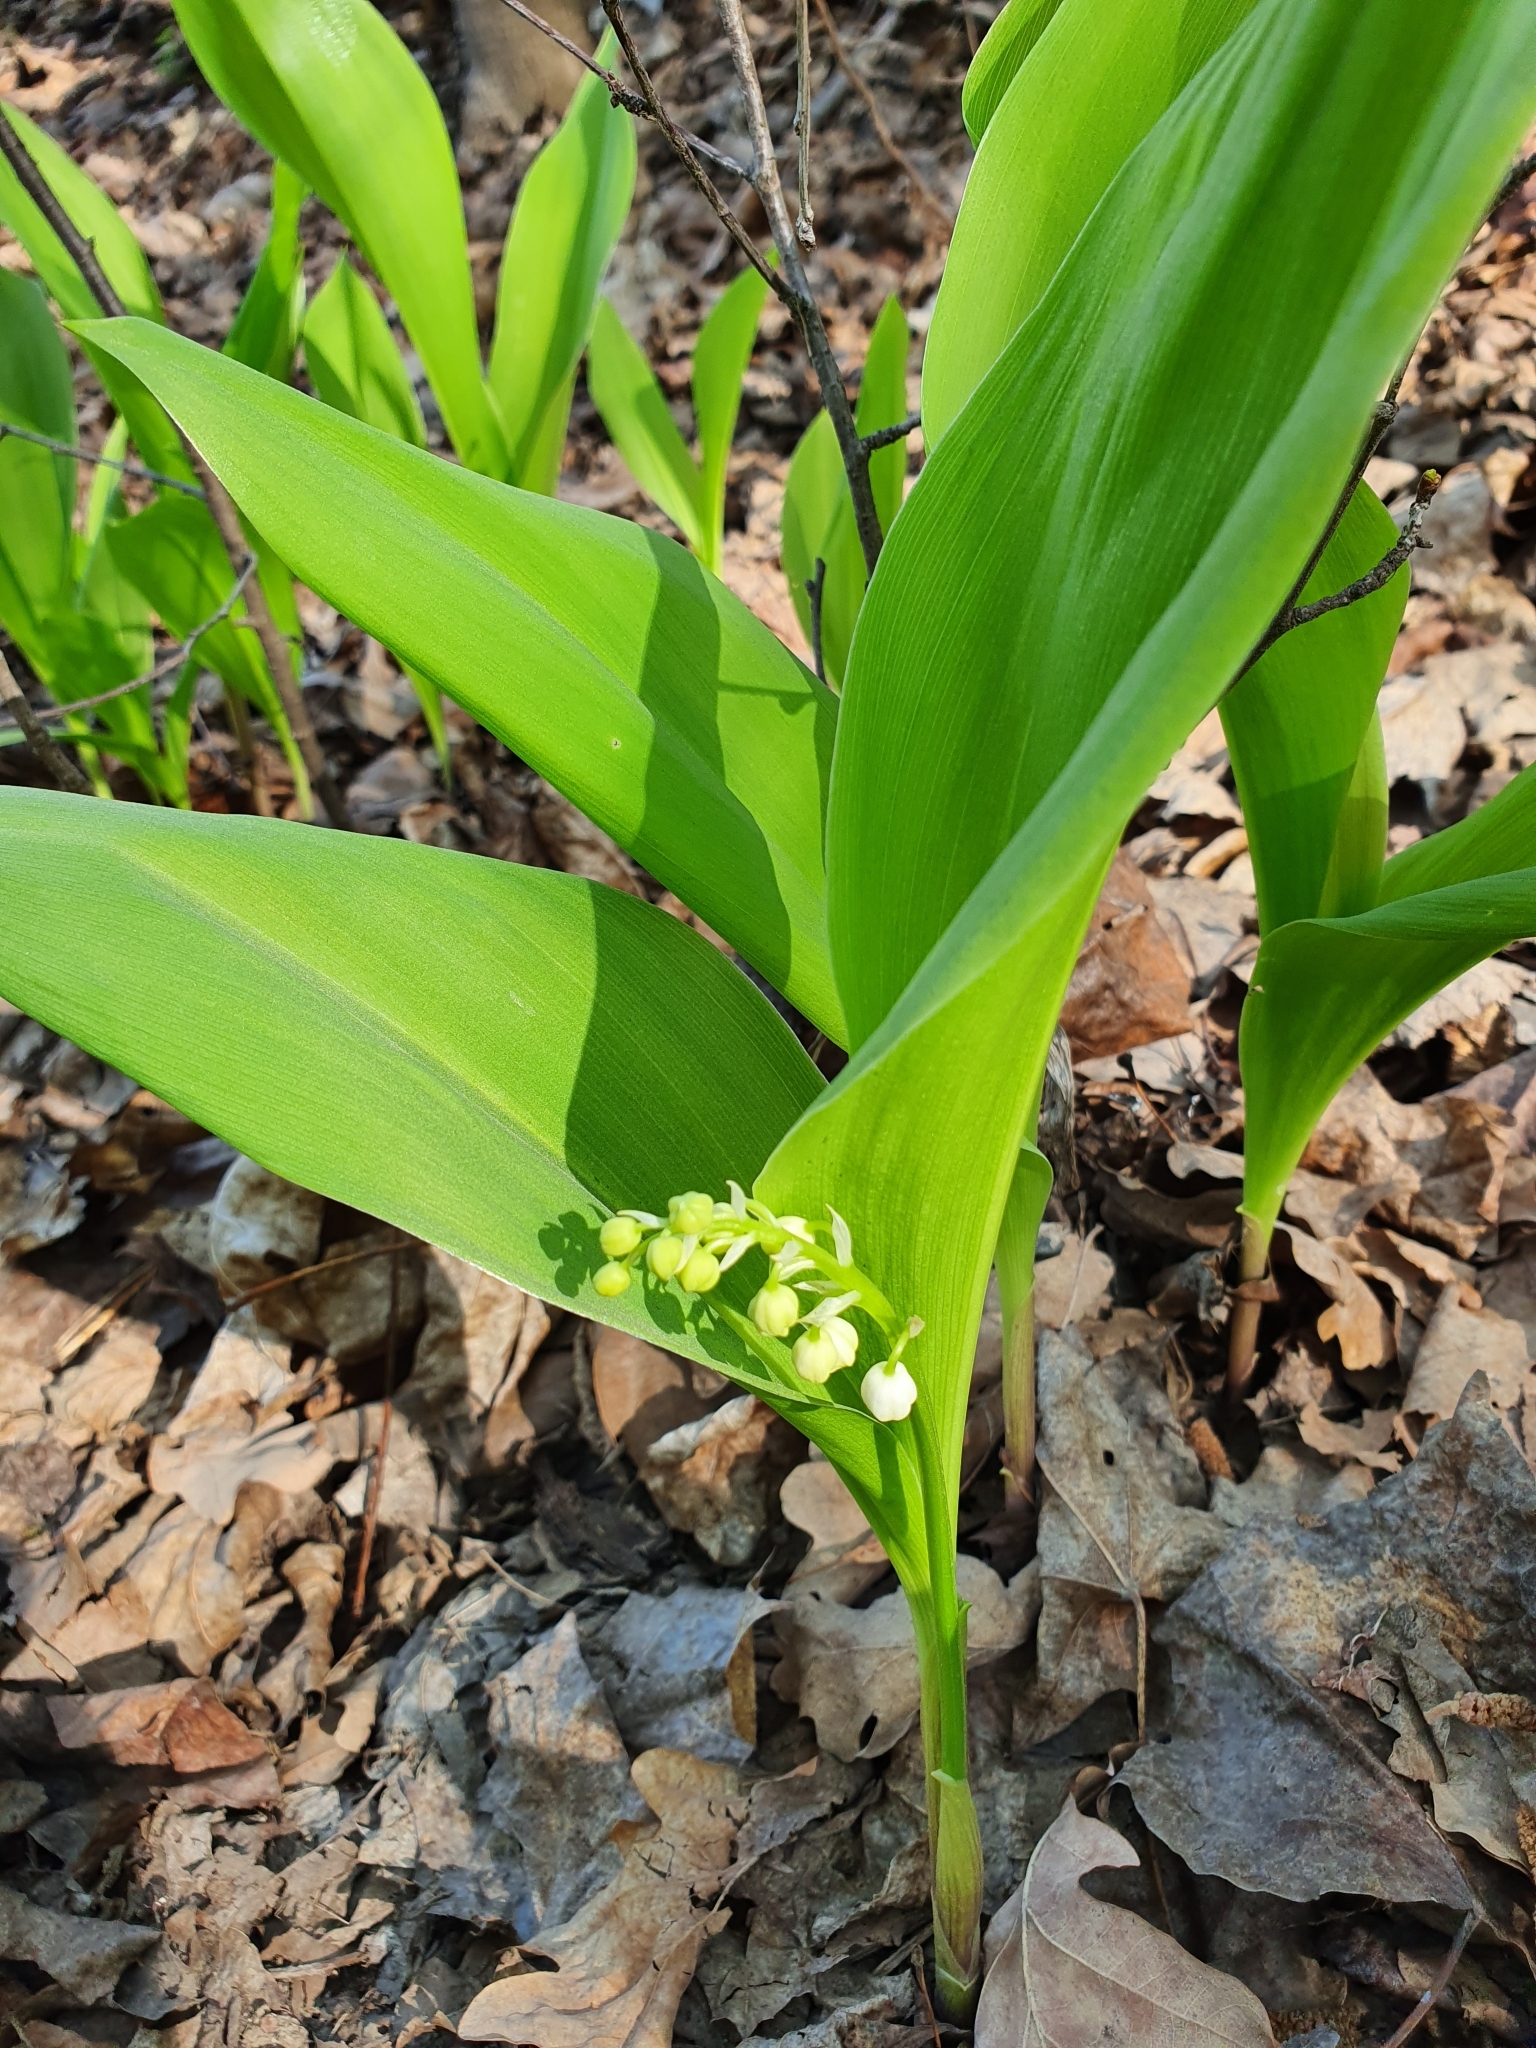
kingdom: Plantae
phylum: Tracheophyta
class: Liliopsida
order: Asparagales
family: Asparagaceae
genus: Convallaria
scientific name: Convallaria majalis
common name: Lily-of-the-valley
